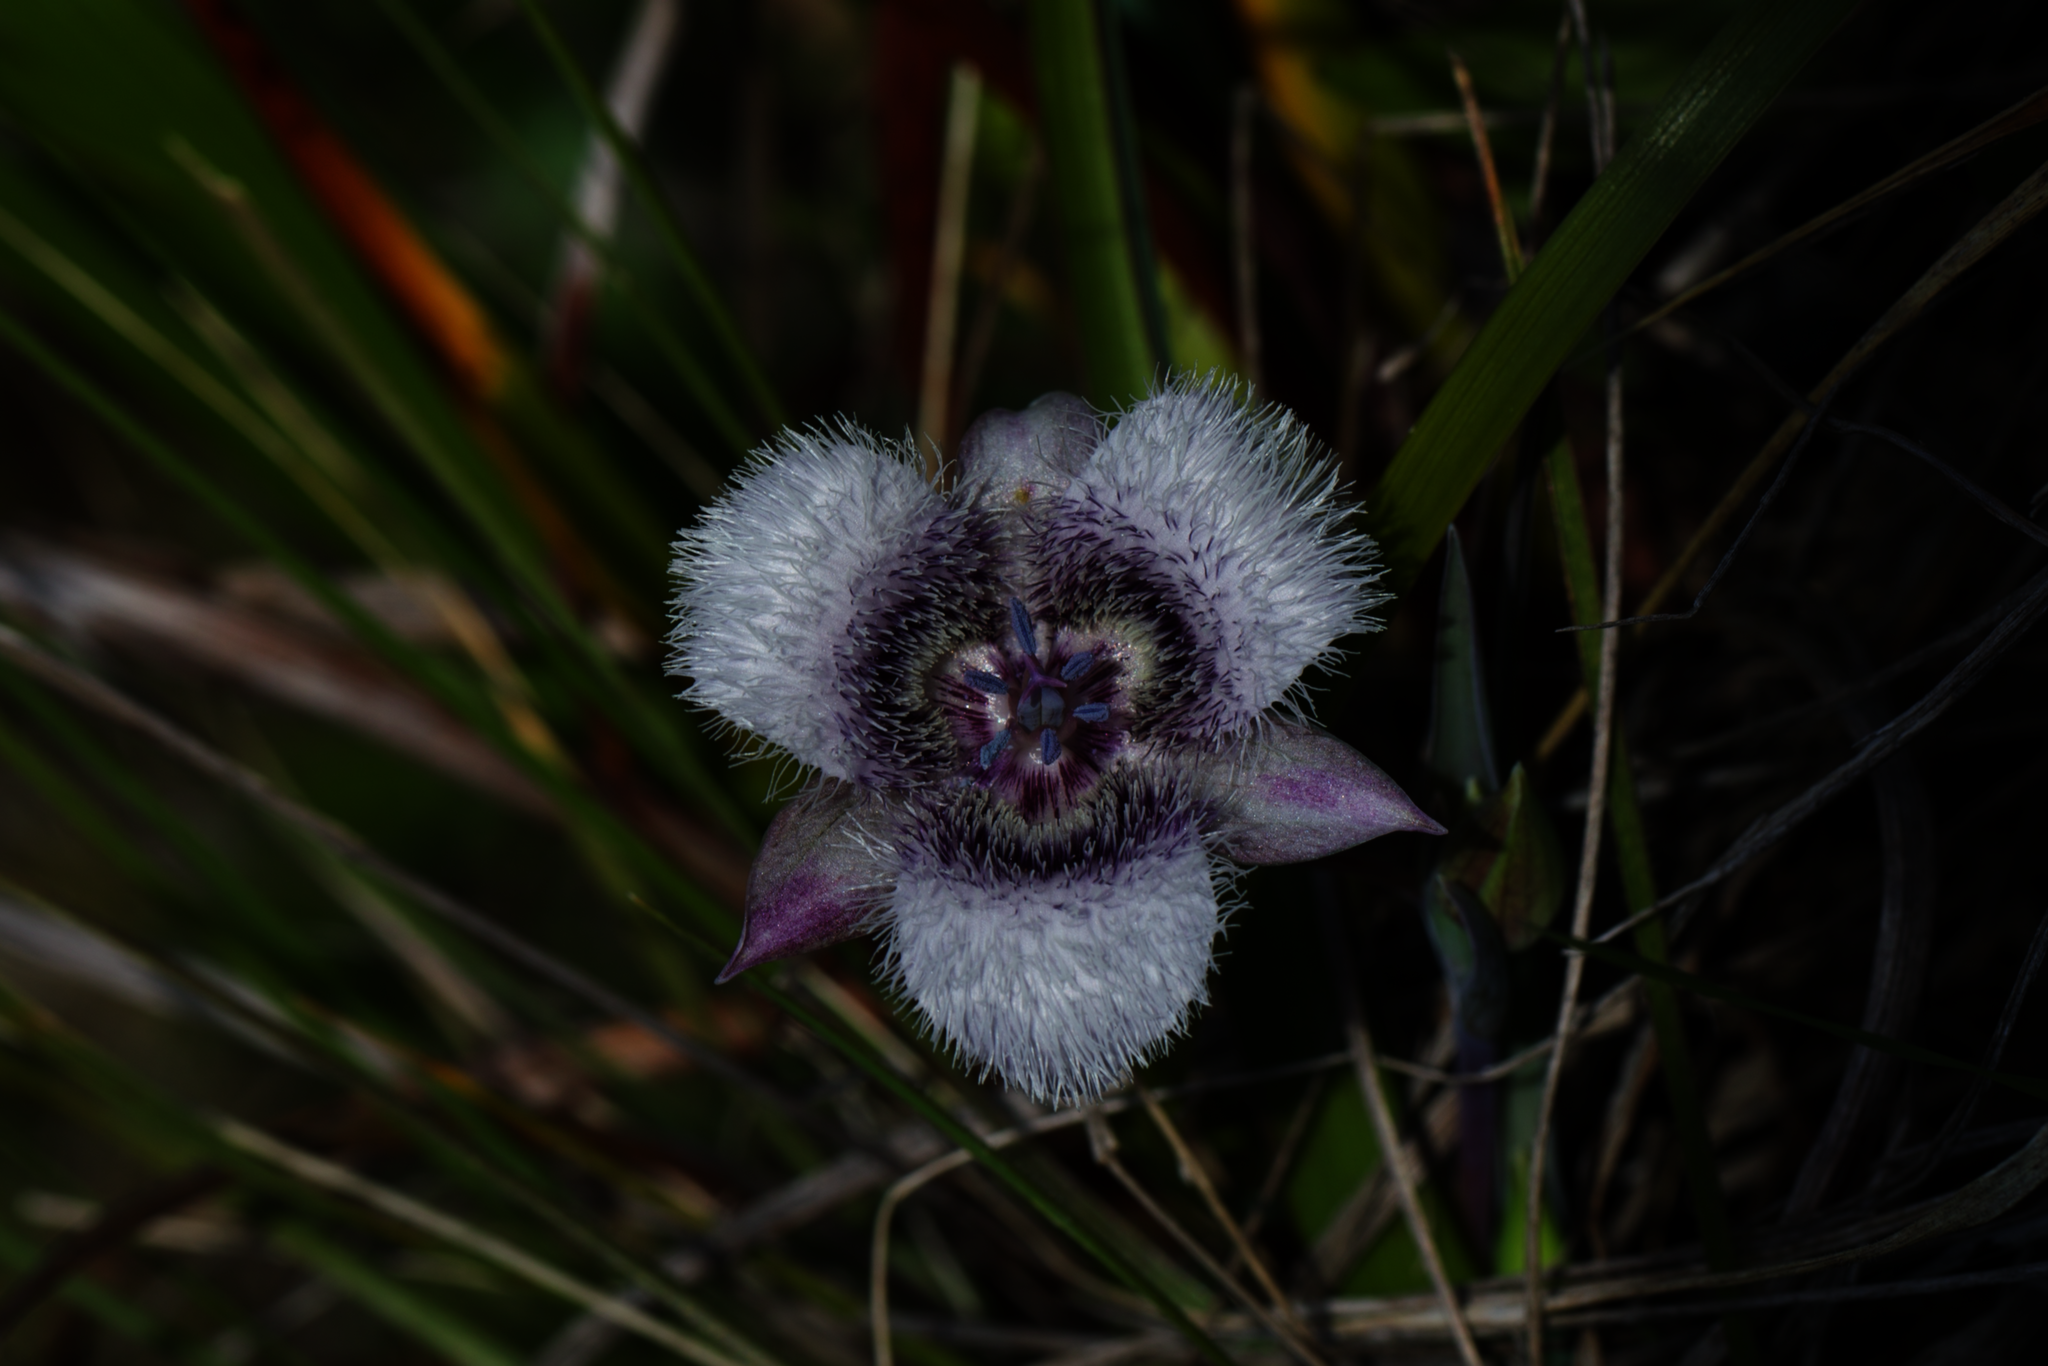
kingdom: Plantae
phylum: Tracheophyta
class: Liliopsida
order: Liliales
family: Liliaceae
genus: Calochortus
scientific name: Calochortus tolmiei
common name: Pussy-ears
